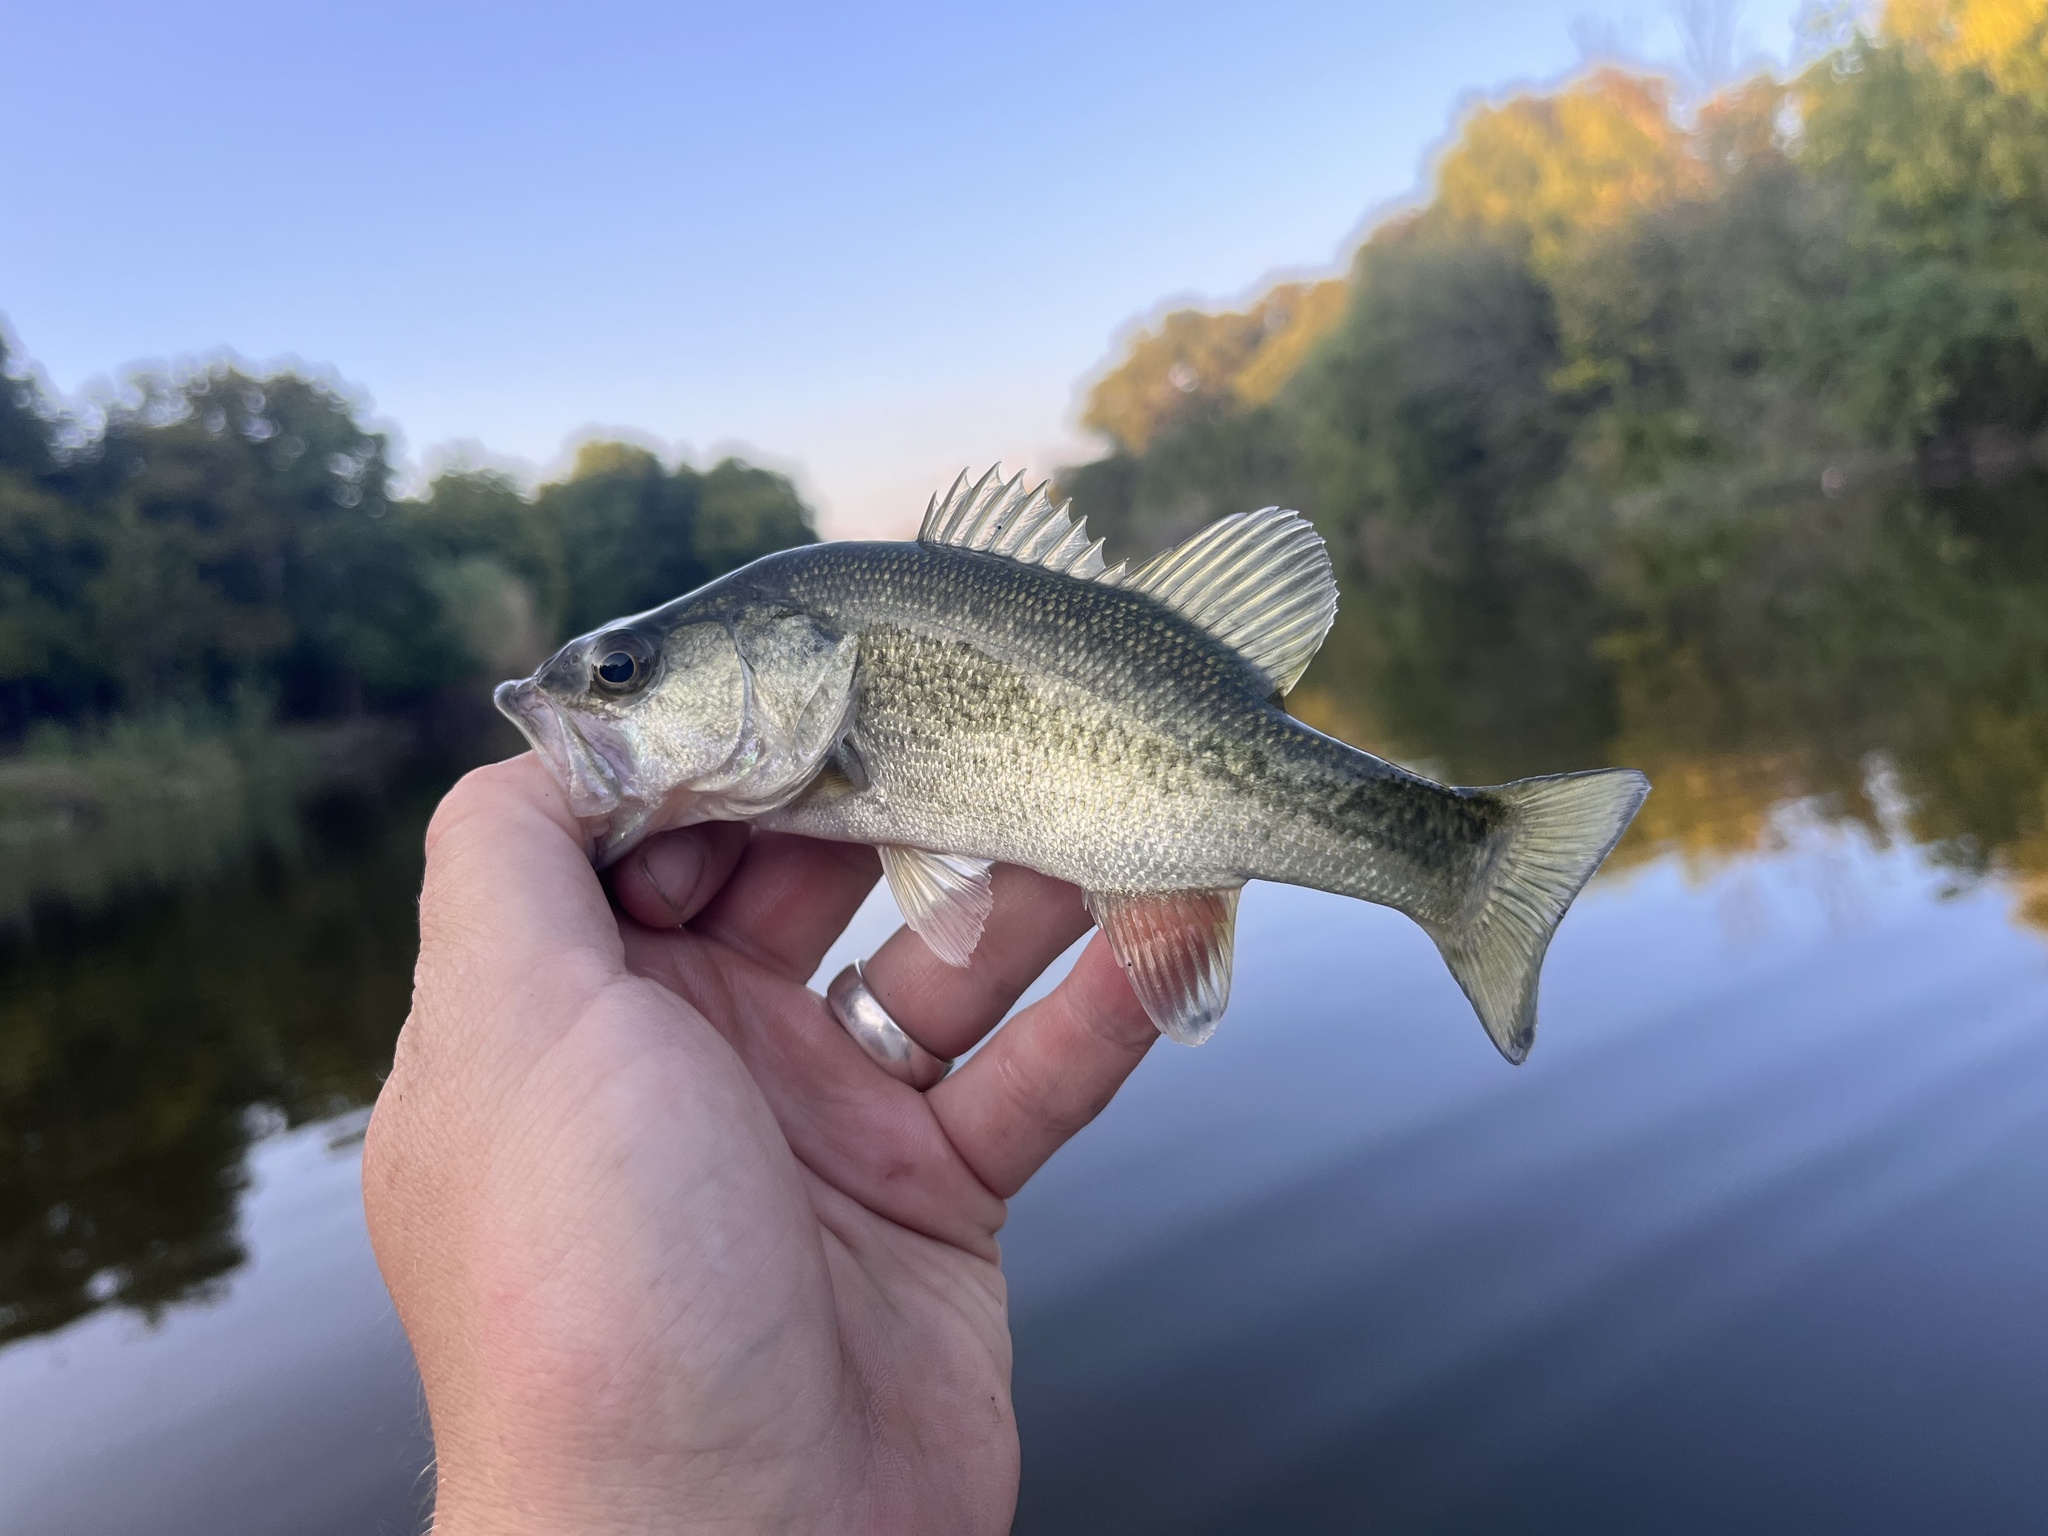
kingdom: Animalia
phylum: Chordata
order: Perciformes
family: Centrarchidae
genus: Micropterus
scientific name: Micropterus
